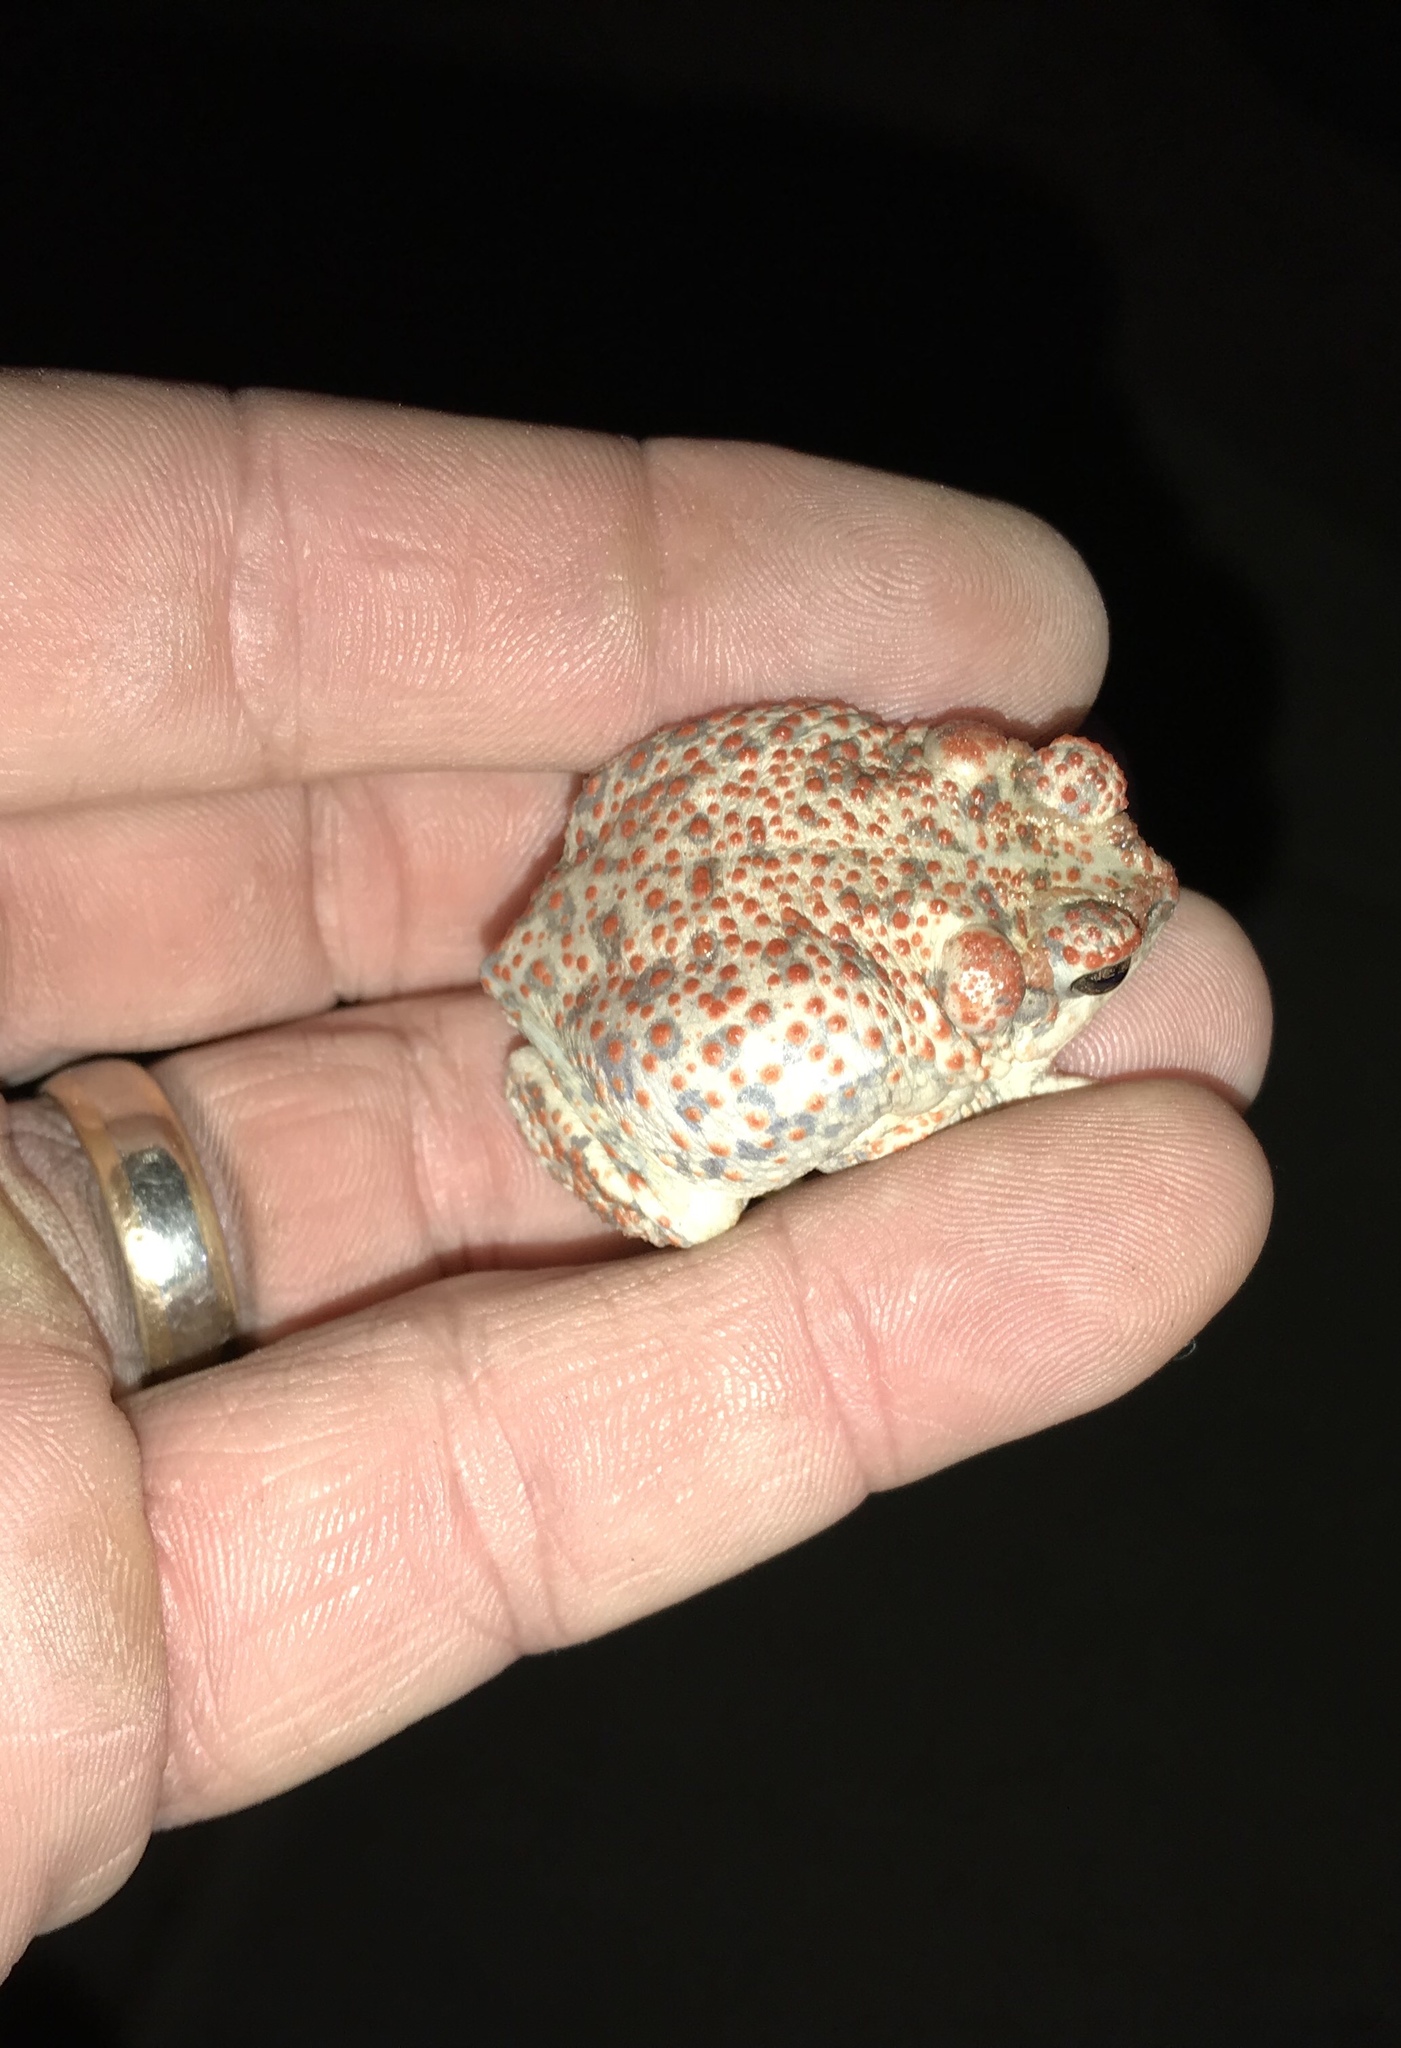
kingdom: Animalia
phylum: Chordata
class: Amphibia
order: Anura
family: Bufonidae
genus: Anaxyrus
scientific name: Anaxyrus punctatus
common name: Red-spotted toad
